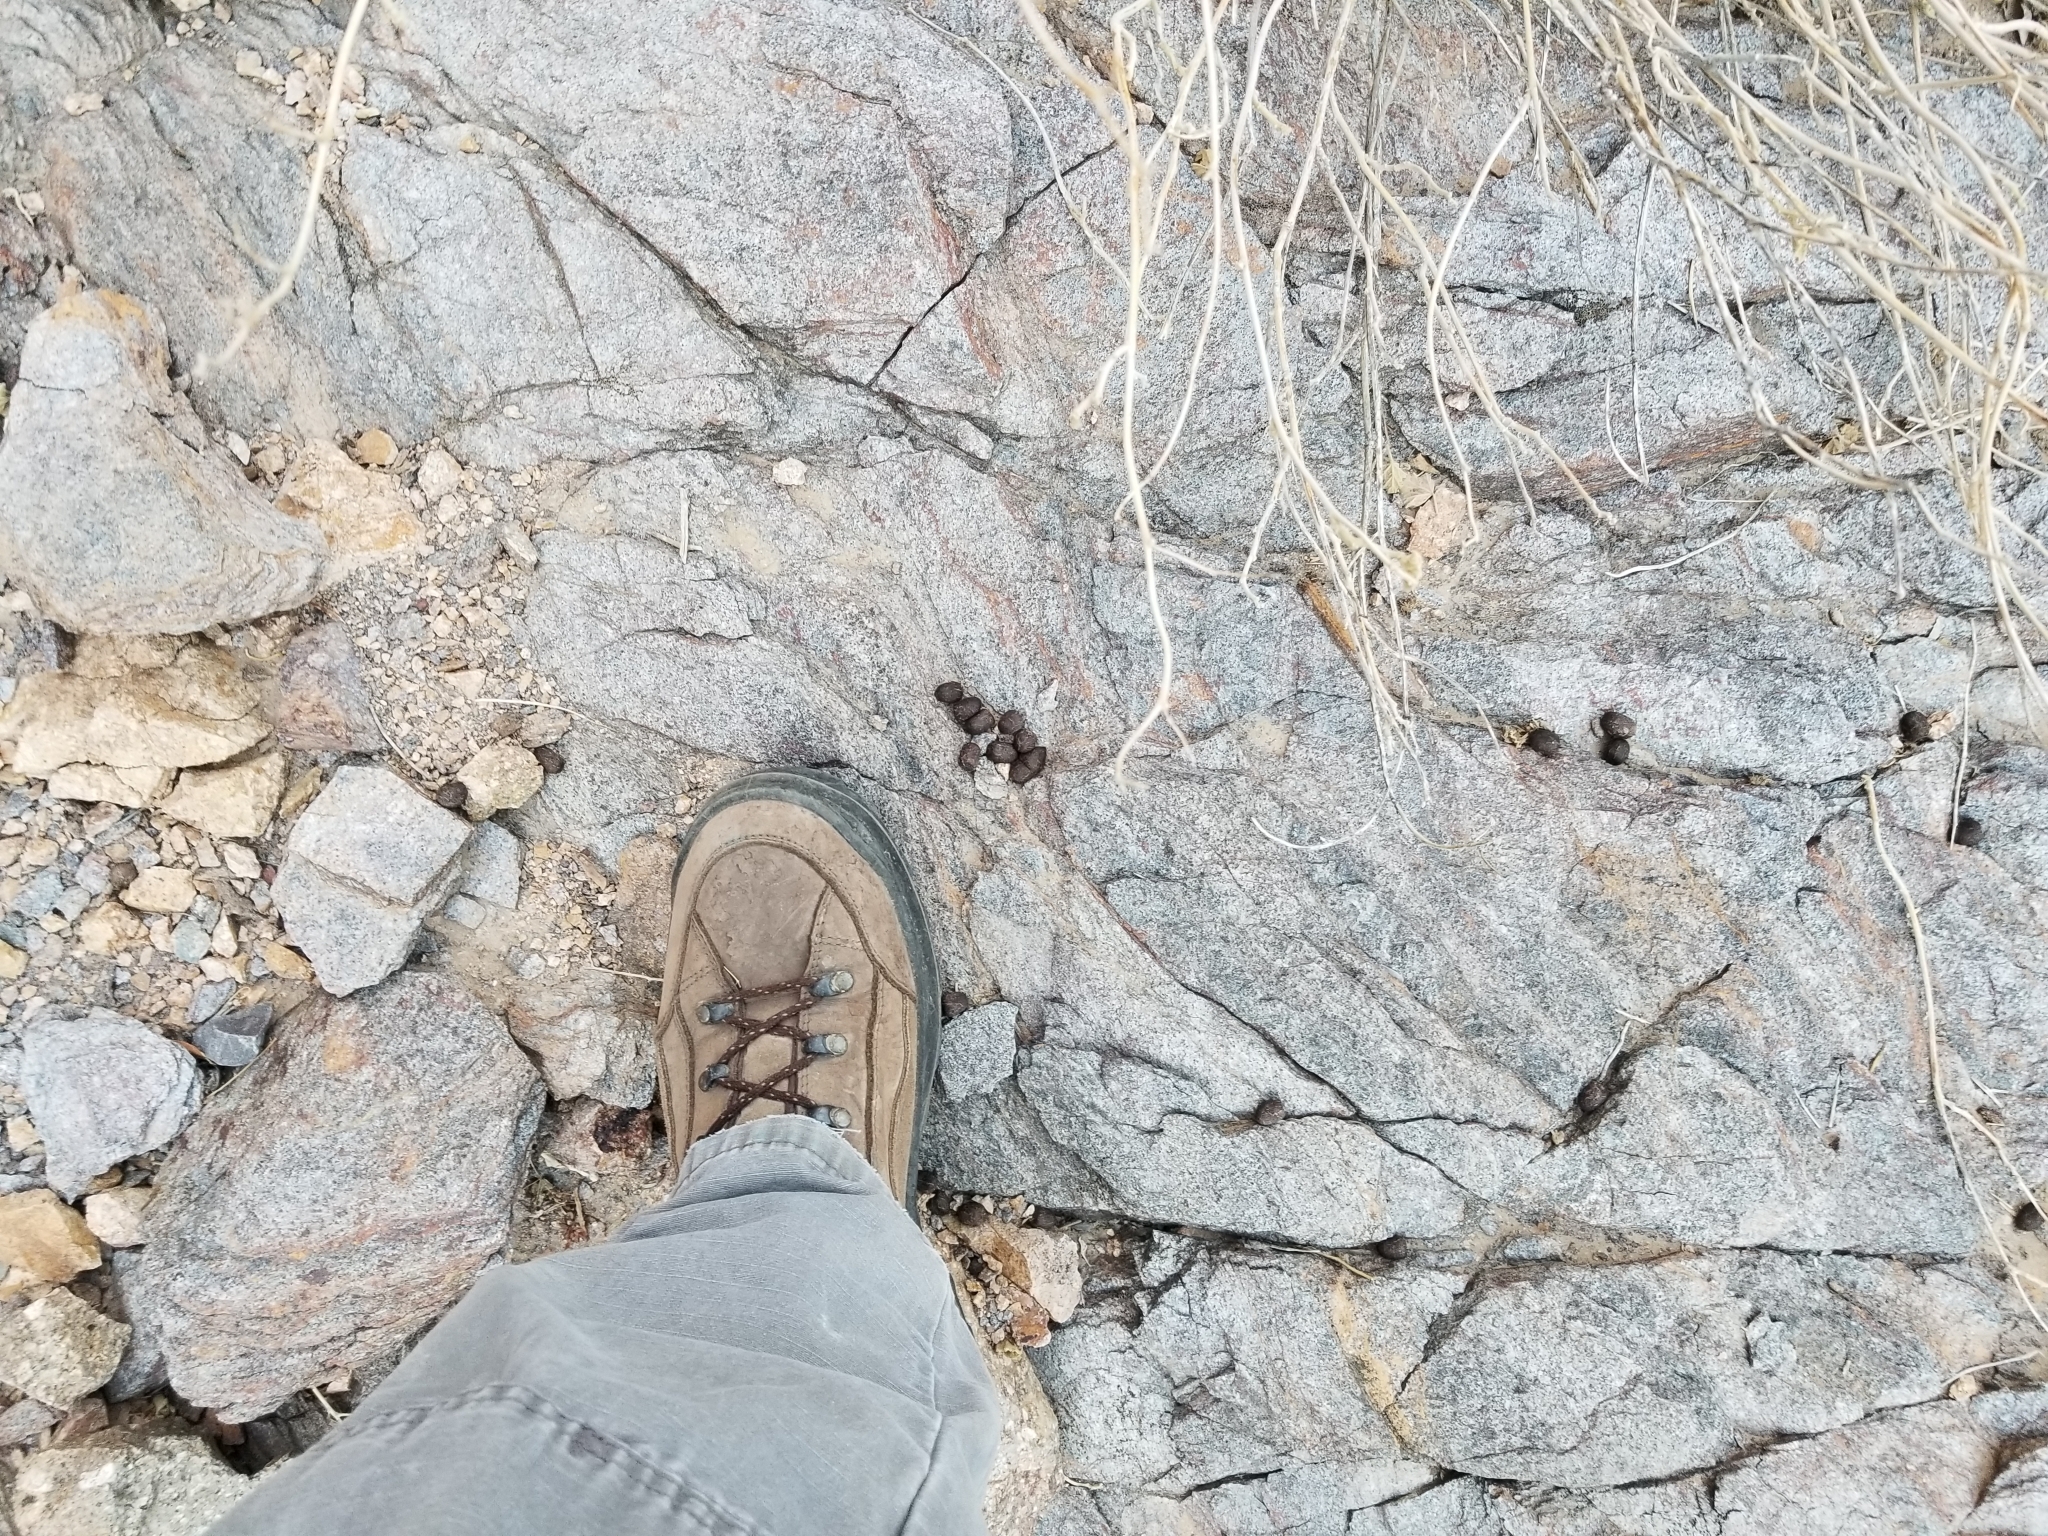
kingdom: Animalia
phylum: Chordata
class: Mammalia
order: Artiodactyla
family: Cervidae
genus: Odocoileus
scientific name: Odocoileus hemionus
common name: Mule deer
